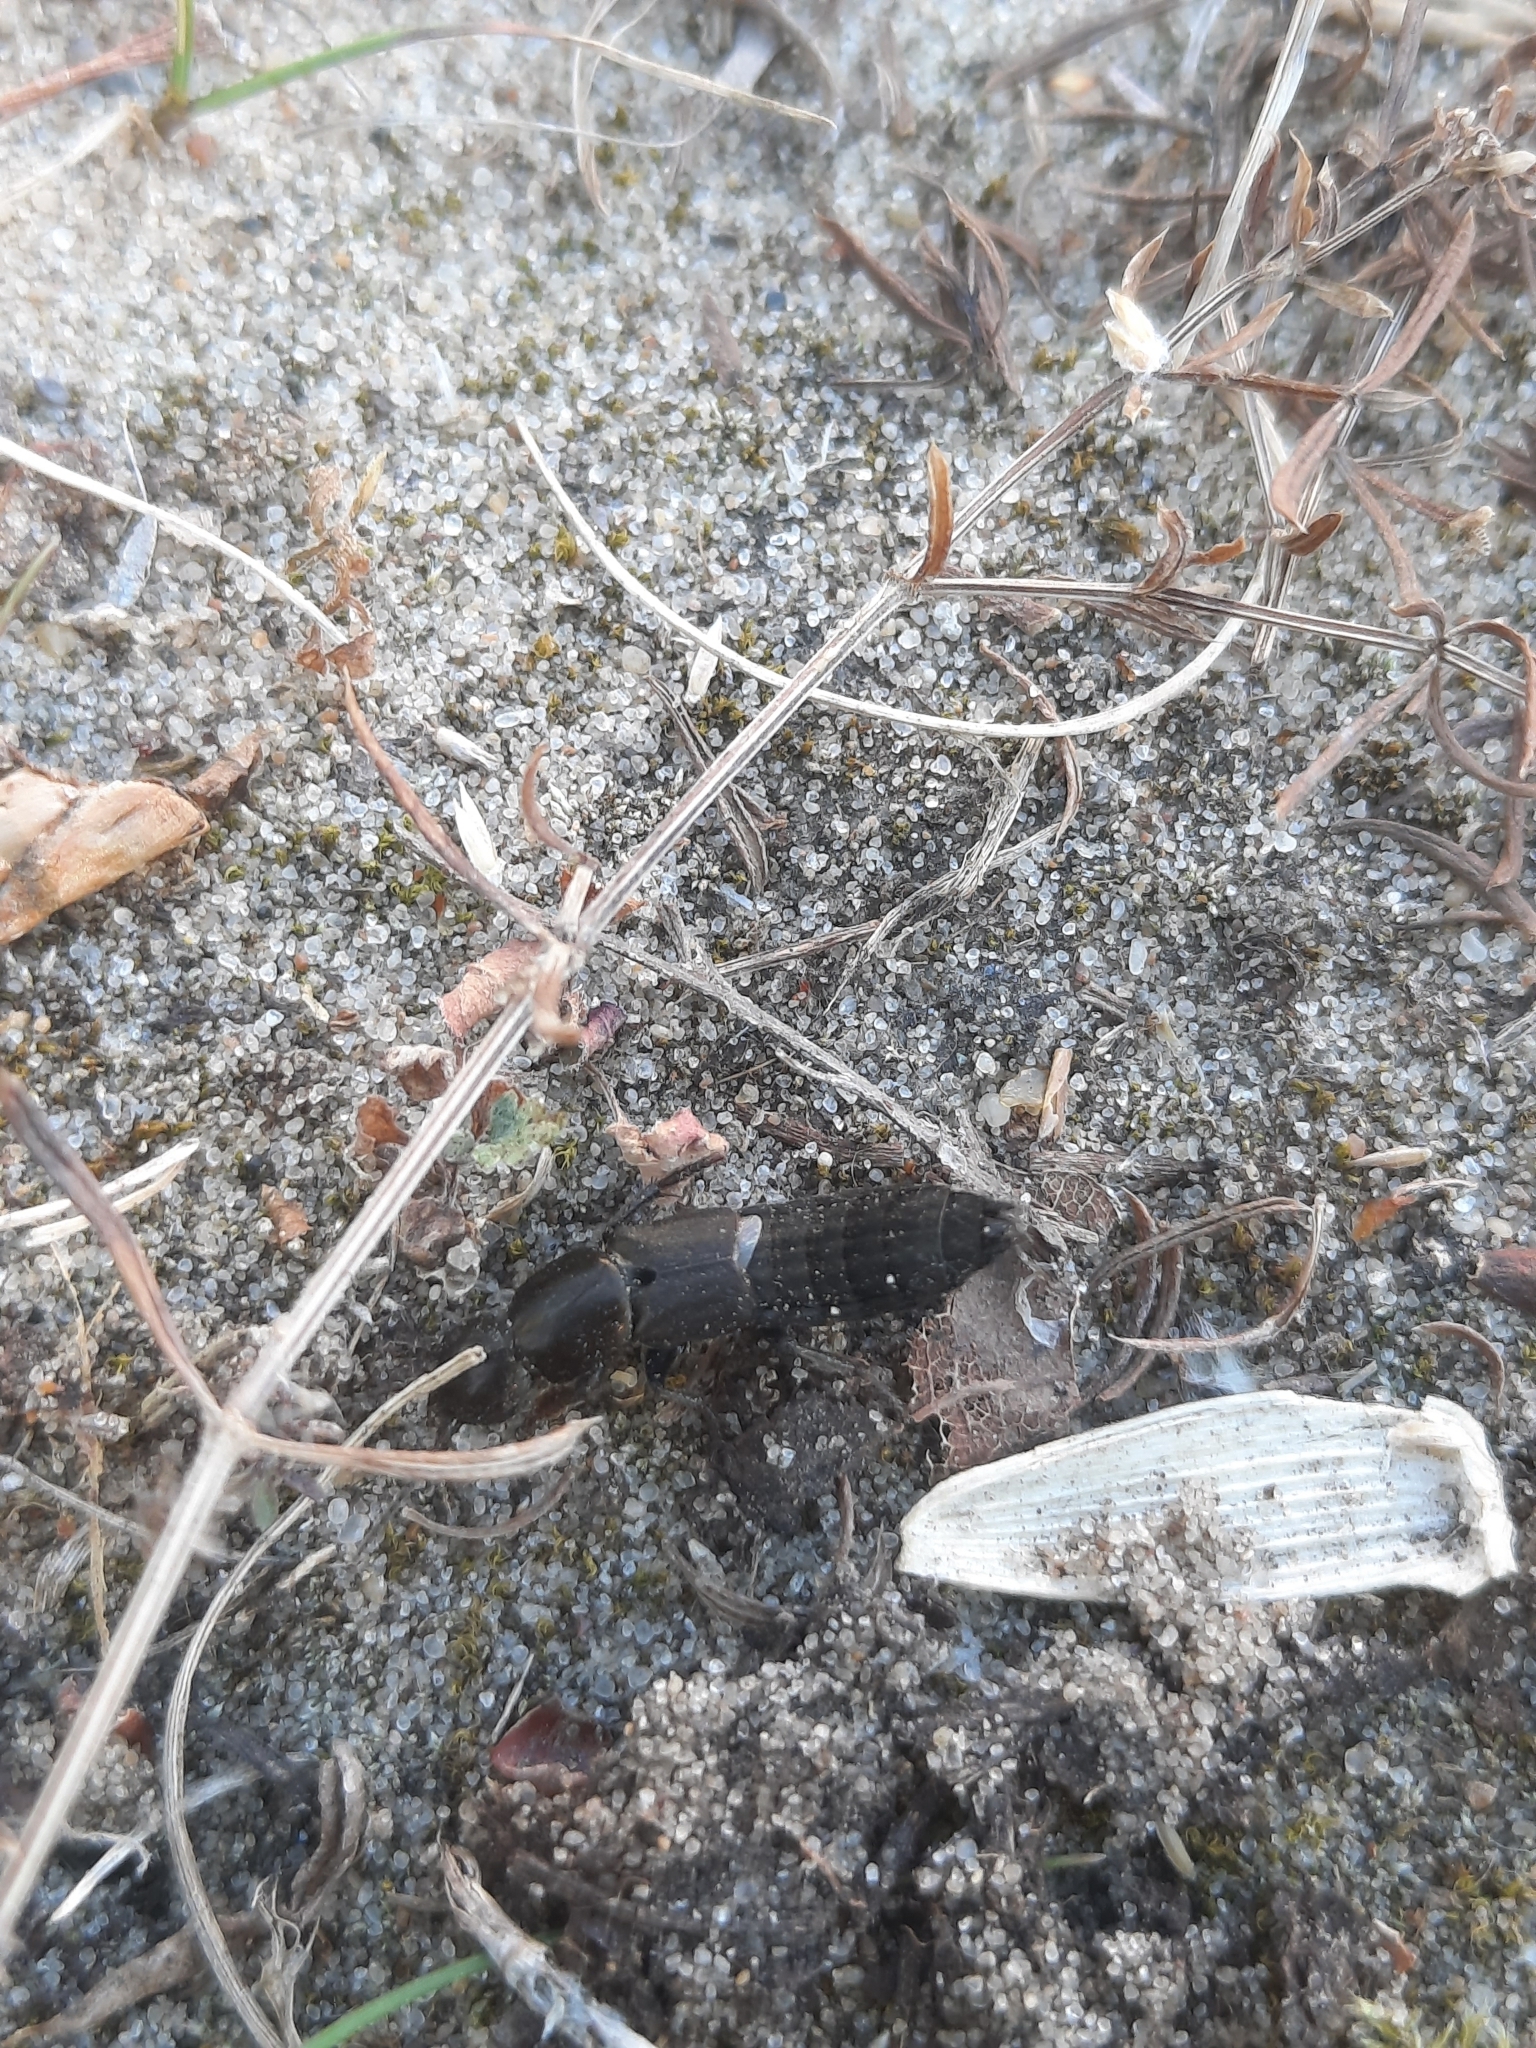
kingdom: Animalia
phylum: Arthropoda
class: Insecta
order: Coleoptera
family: Staphylinidae
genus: Ocypus
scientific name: Ocypus picipennis
